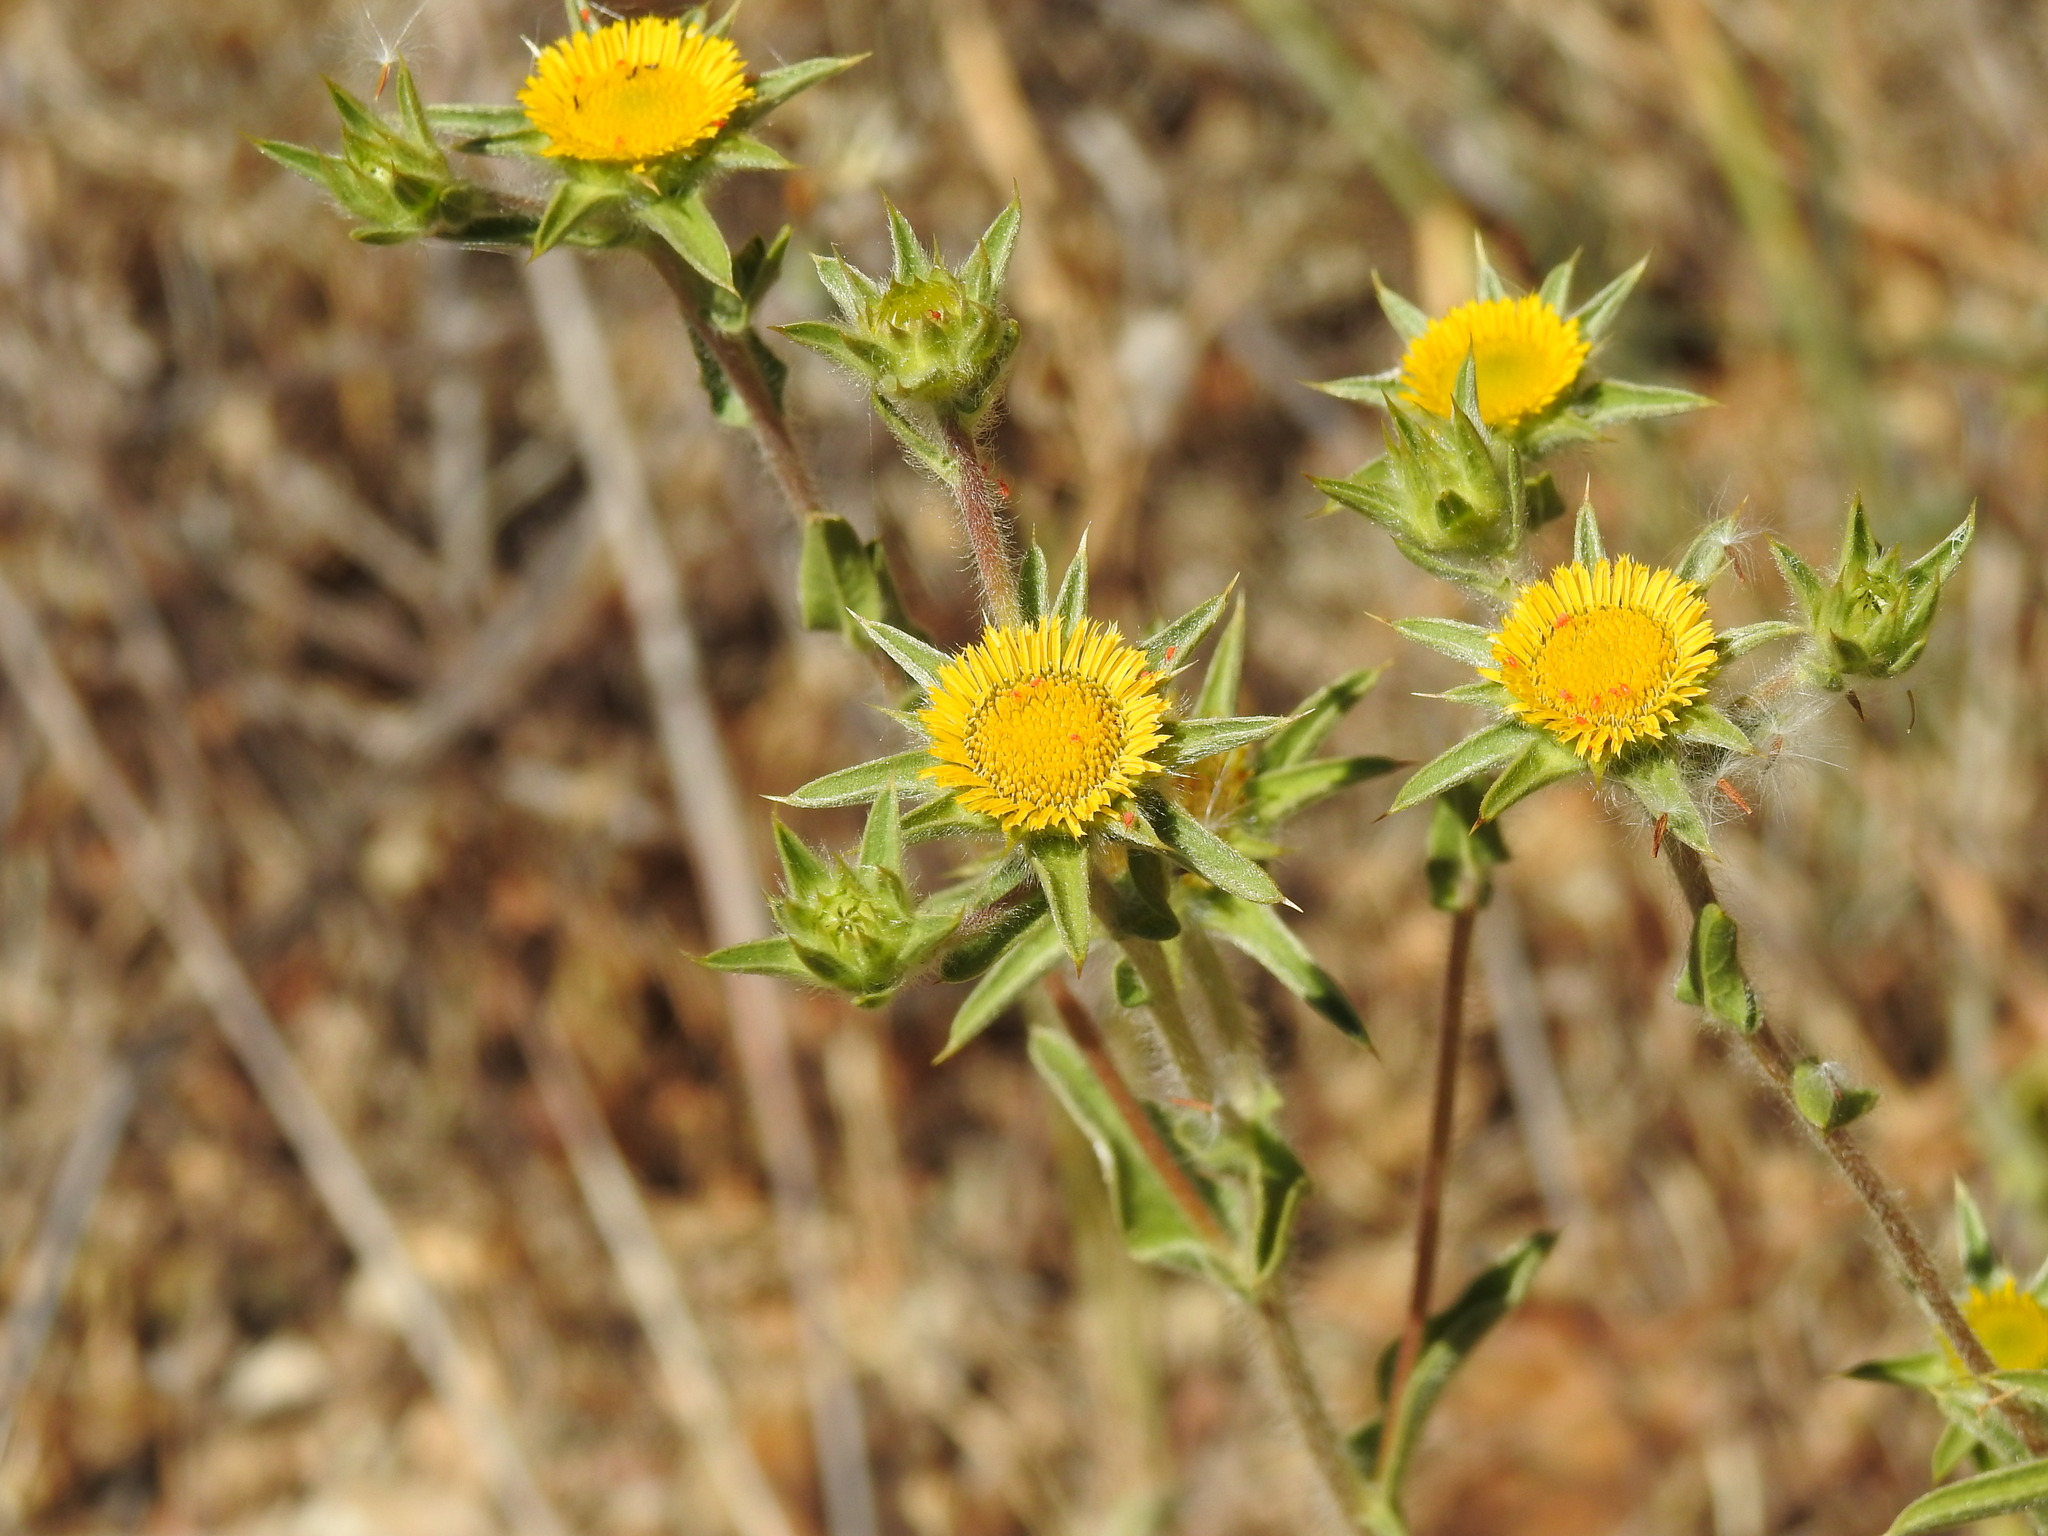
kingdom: Plantae
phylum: Tracheophyta
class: Magnoliopsida
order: Asterales
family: Asteraceae
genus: Pallenis
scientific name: Pallenis spinosa
